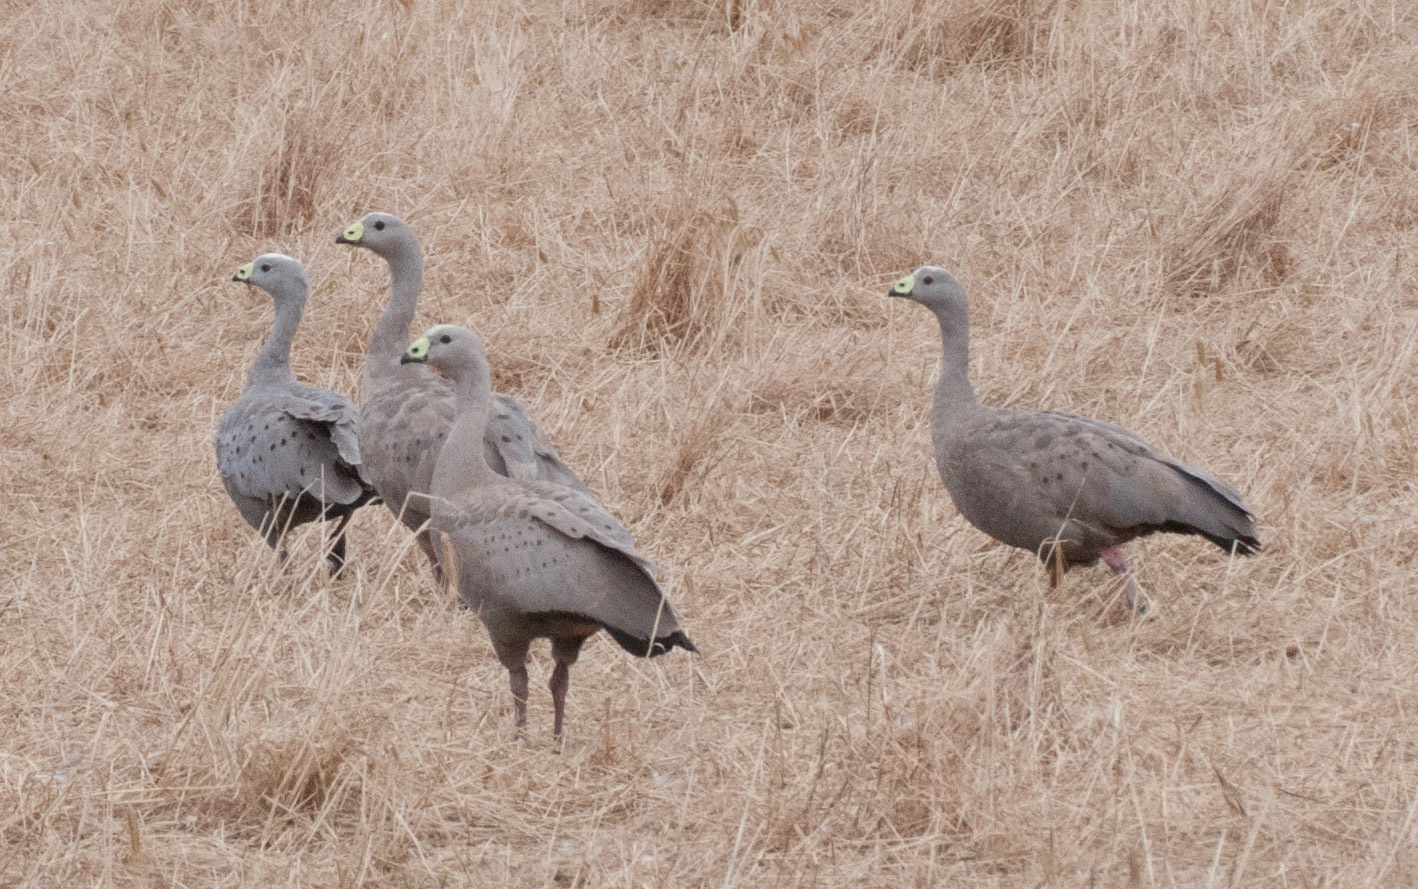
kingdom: Animalia
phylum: Chordata
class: Aves
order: Anseriformes
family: Anatidae
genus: Cereopsis
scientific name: Cereopsis novaehollandiae
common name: Cape barren goose
